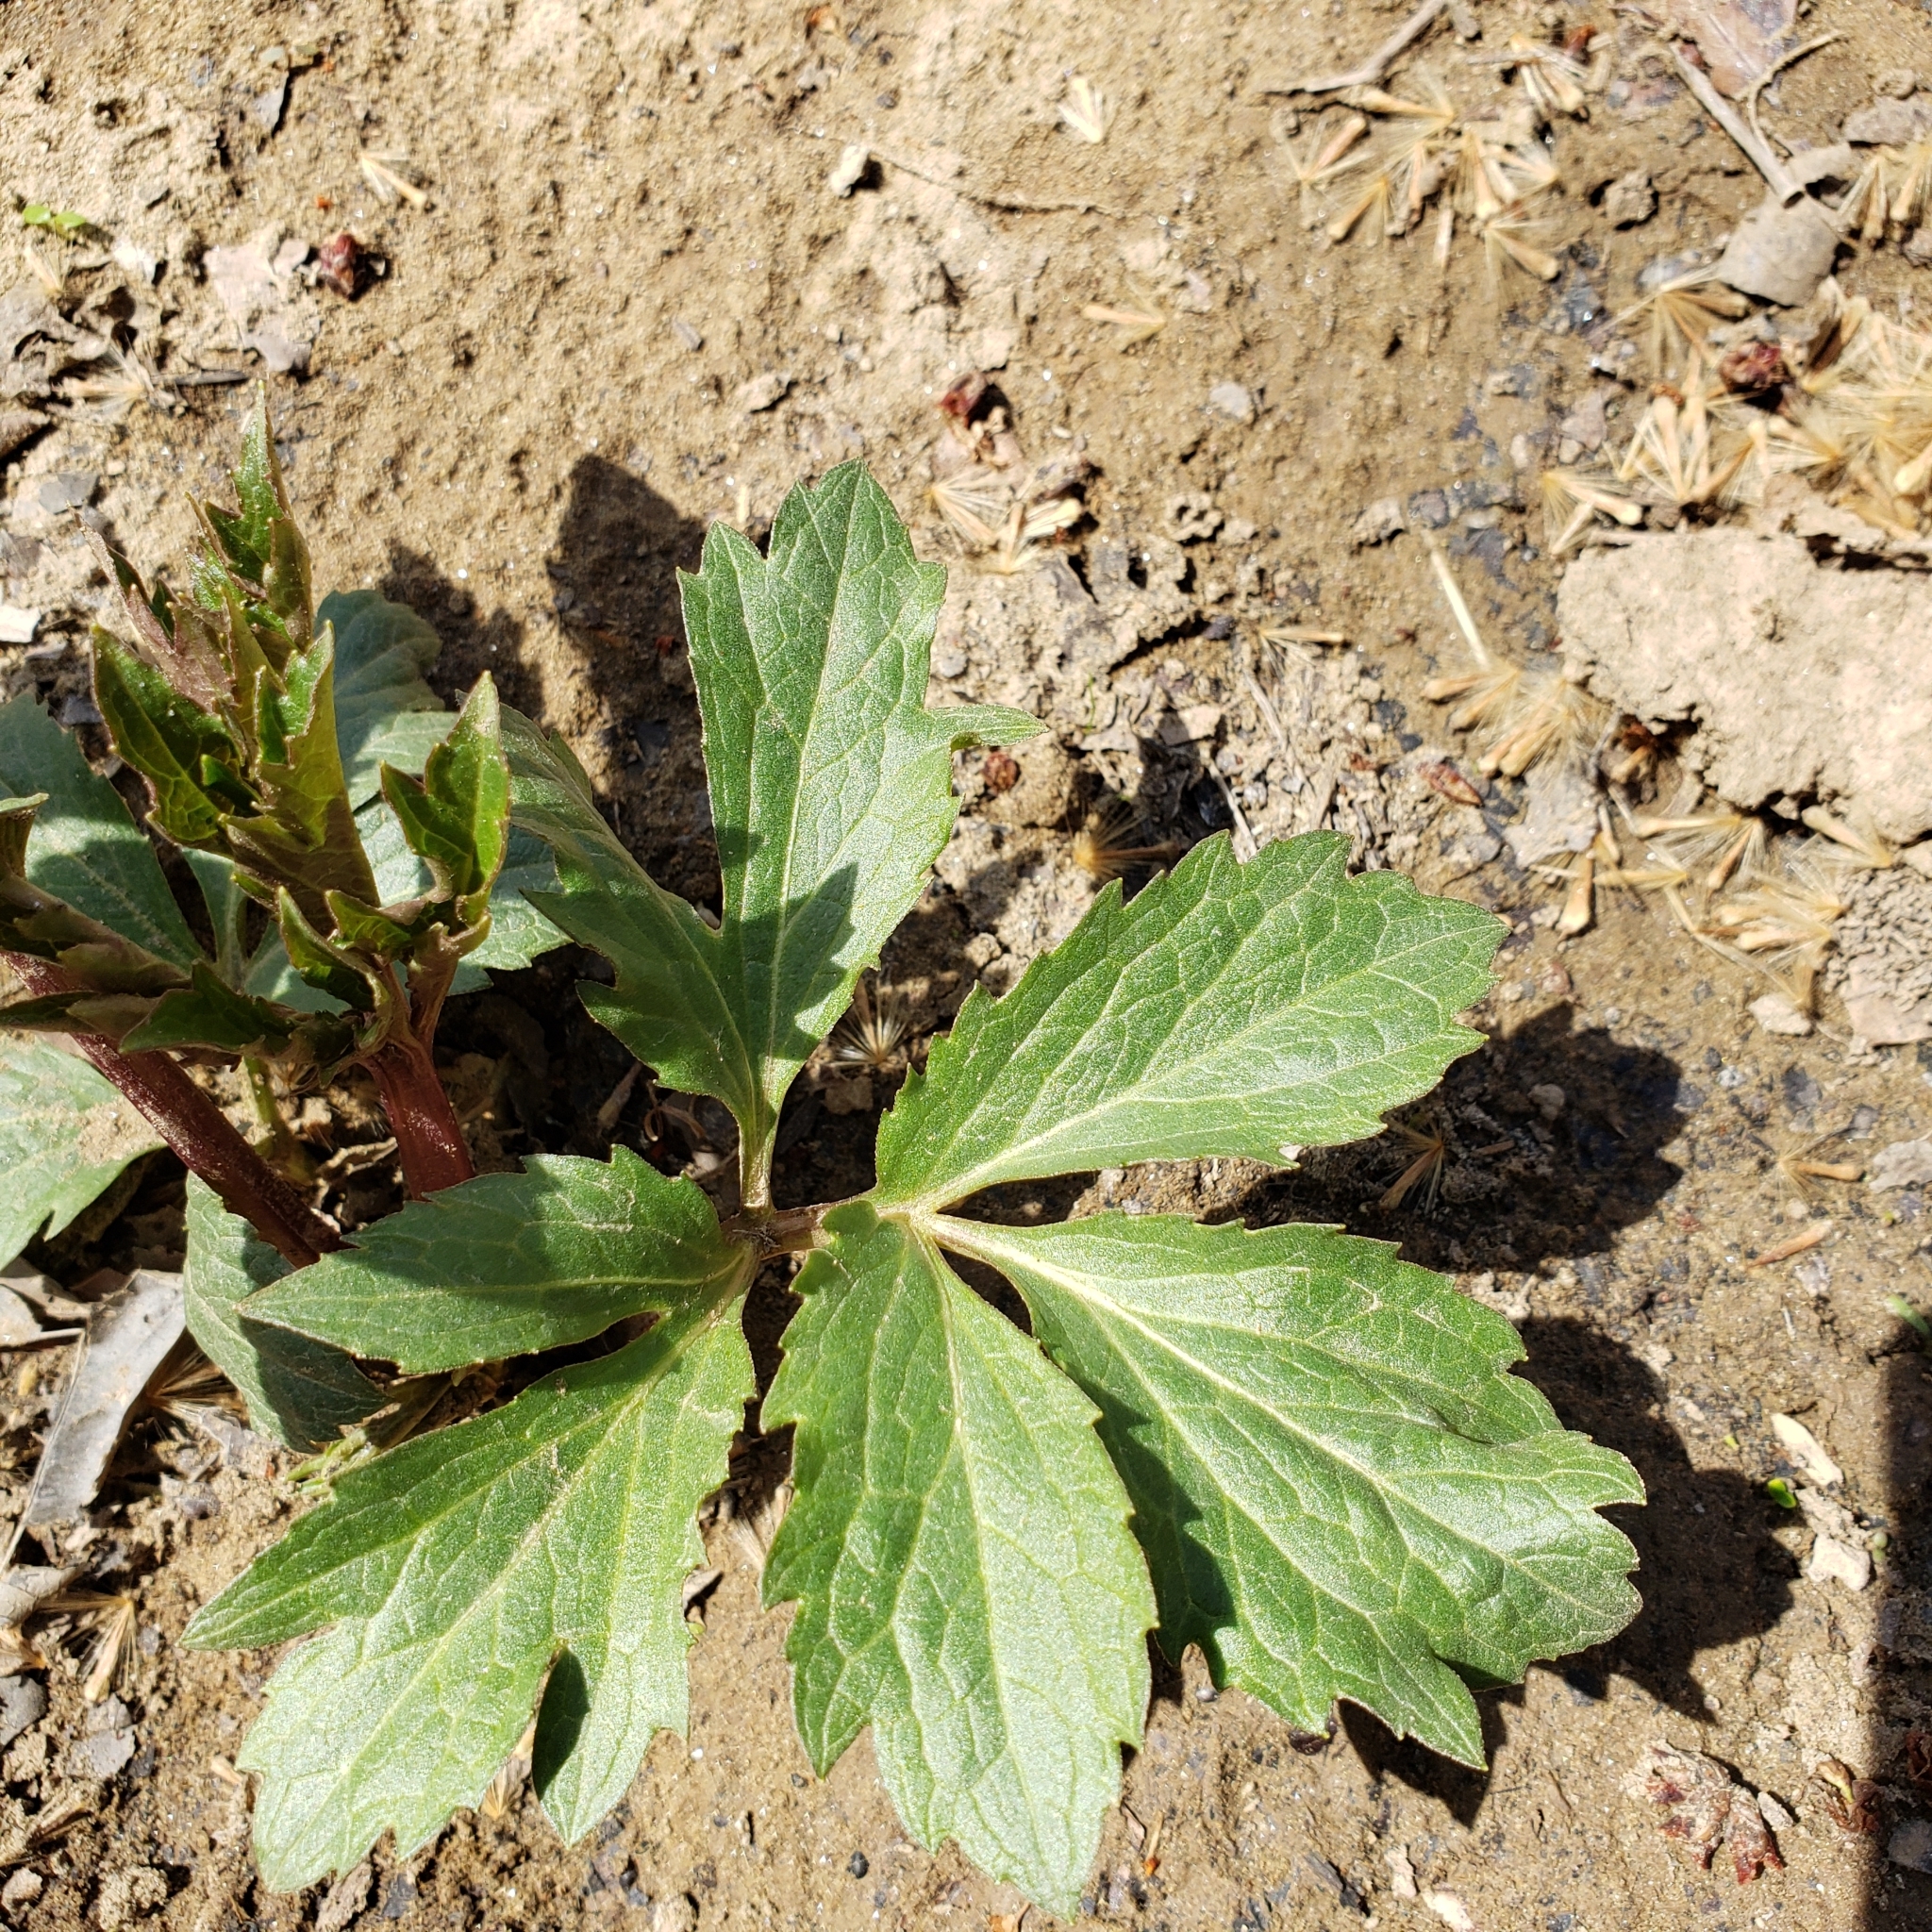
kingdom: Plantae
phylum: Tracheophyta
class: Magnoliopsida
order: Asterales
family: Asteraceae
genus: Rudbeckia
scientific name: Rudbeckia laciniata
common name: Coneflower
